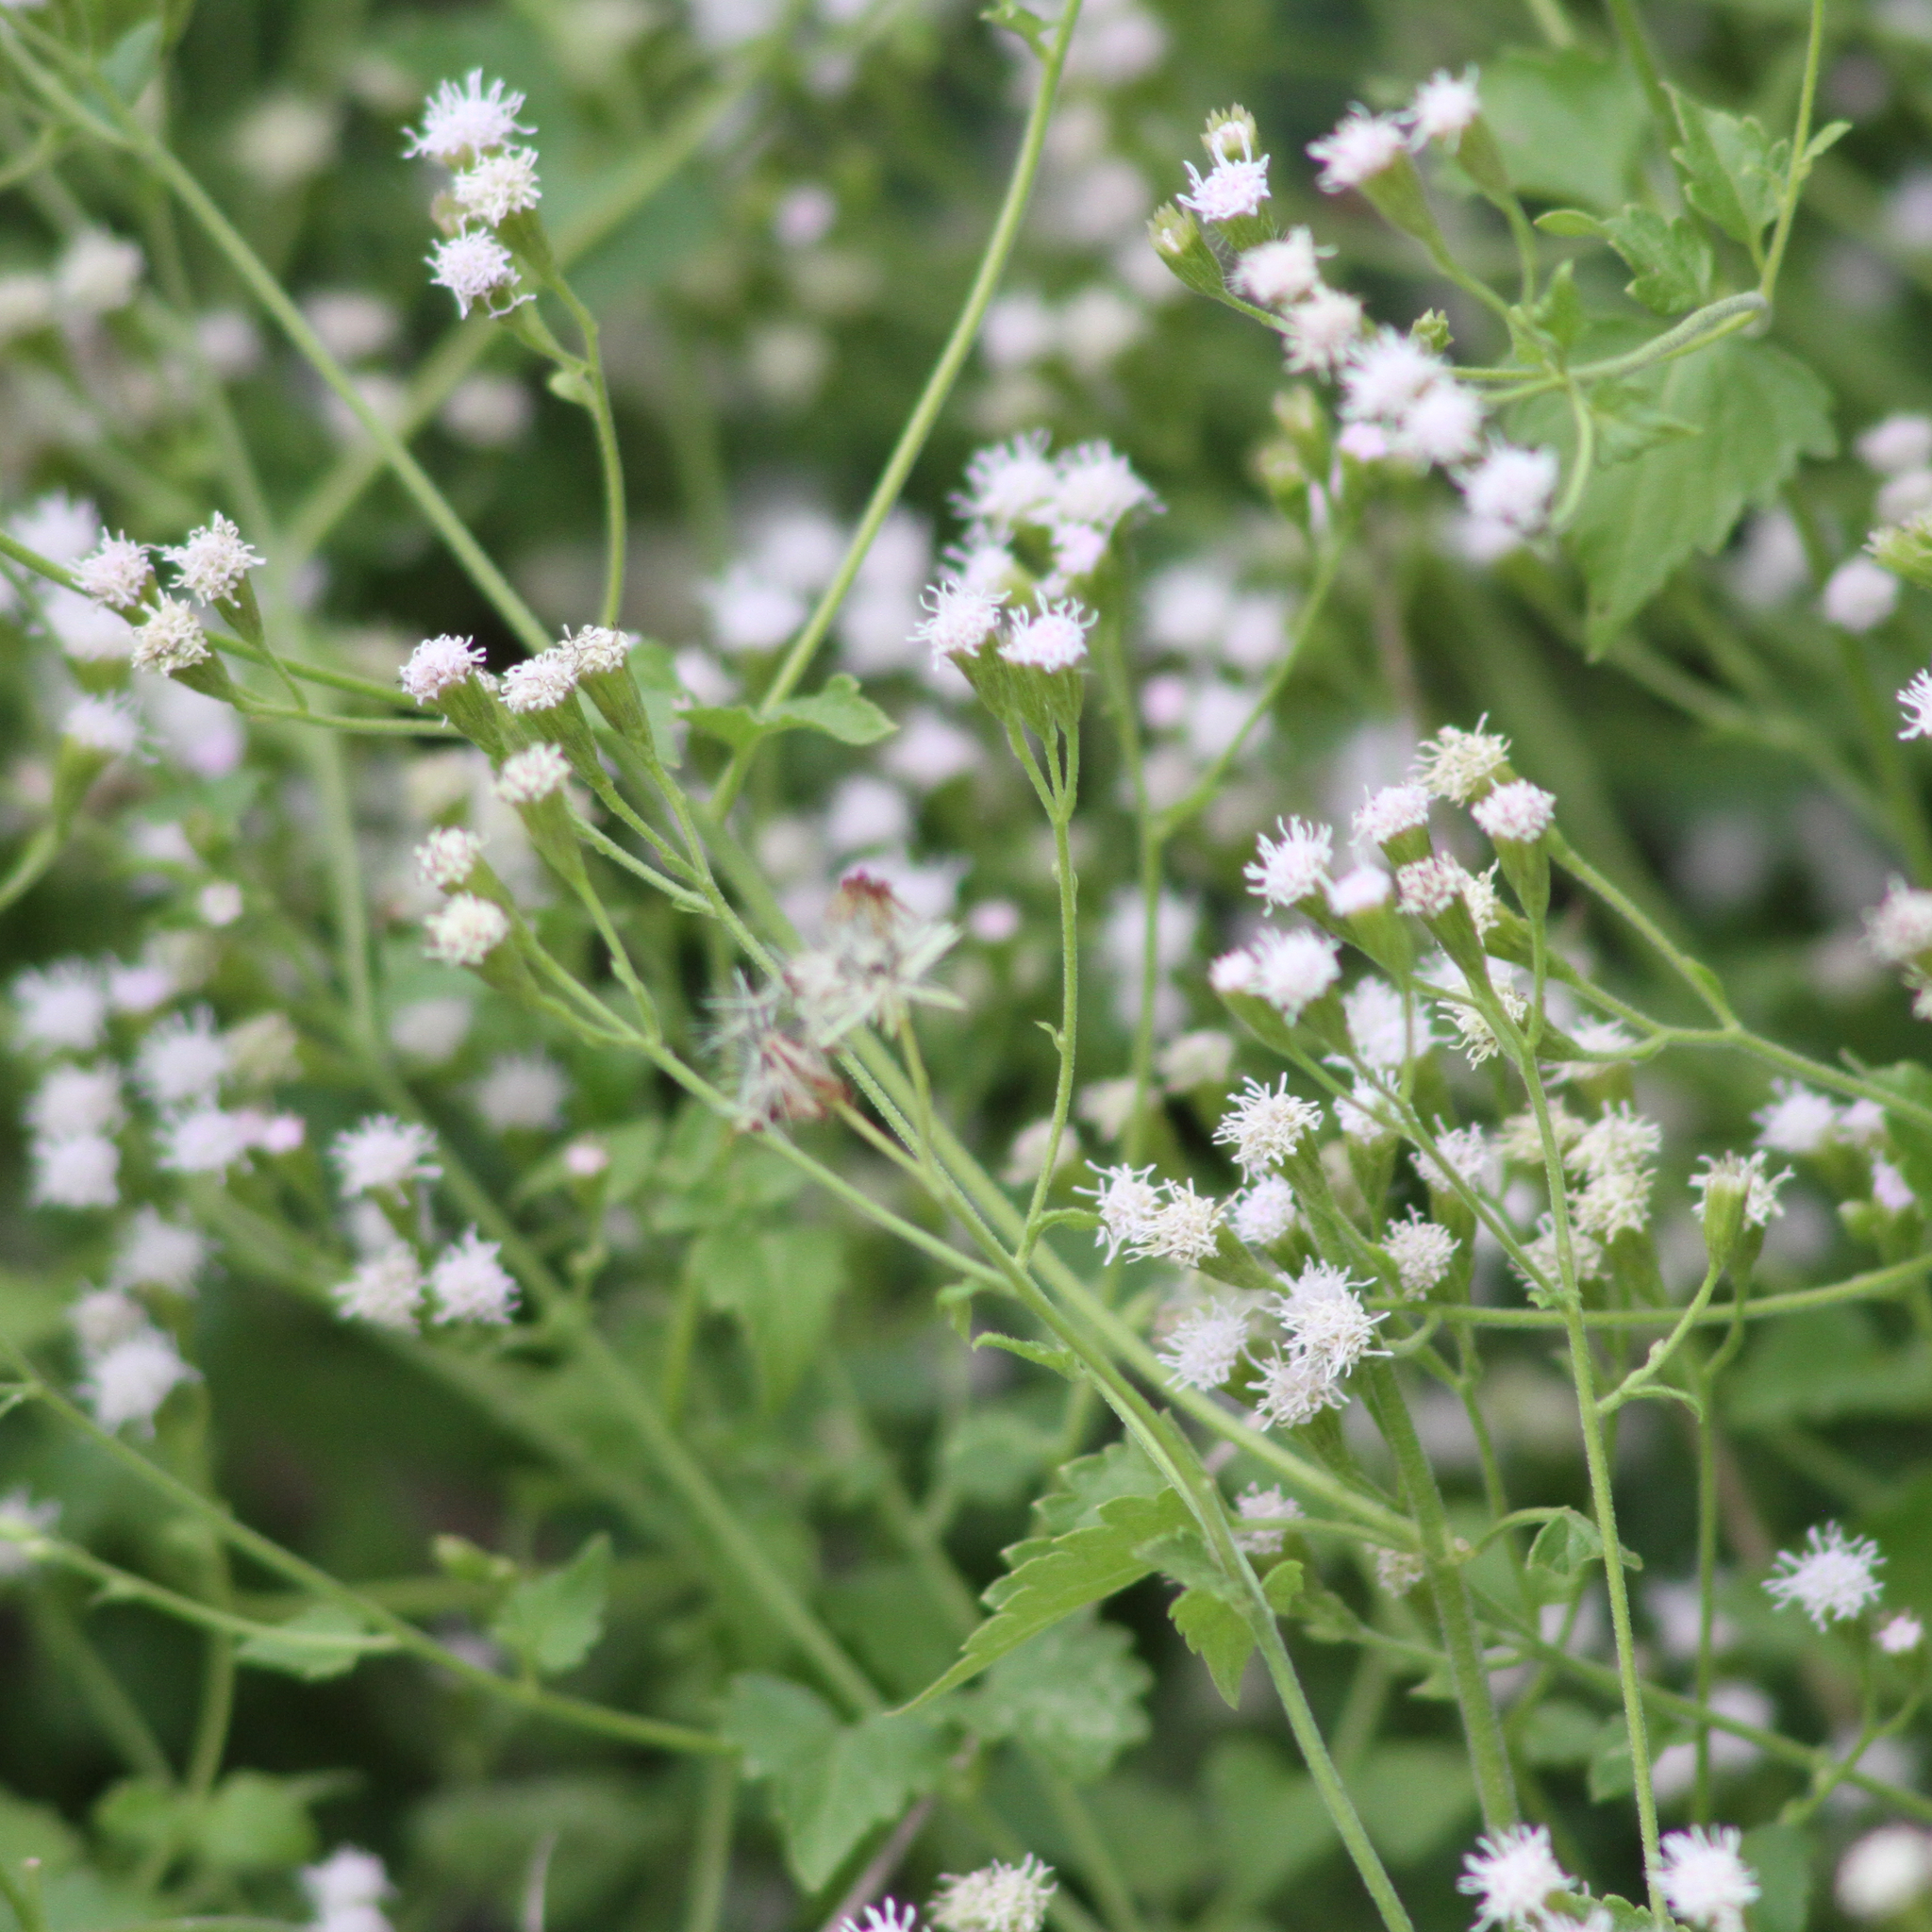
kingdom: Plantae
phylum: Tracheophyta
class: Magnoliopsida
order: Asterales
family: Asteraceae
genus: Fleischmannia
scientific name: Fleischmannia incarnata
